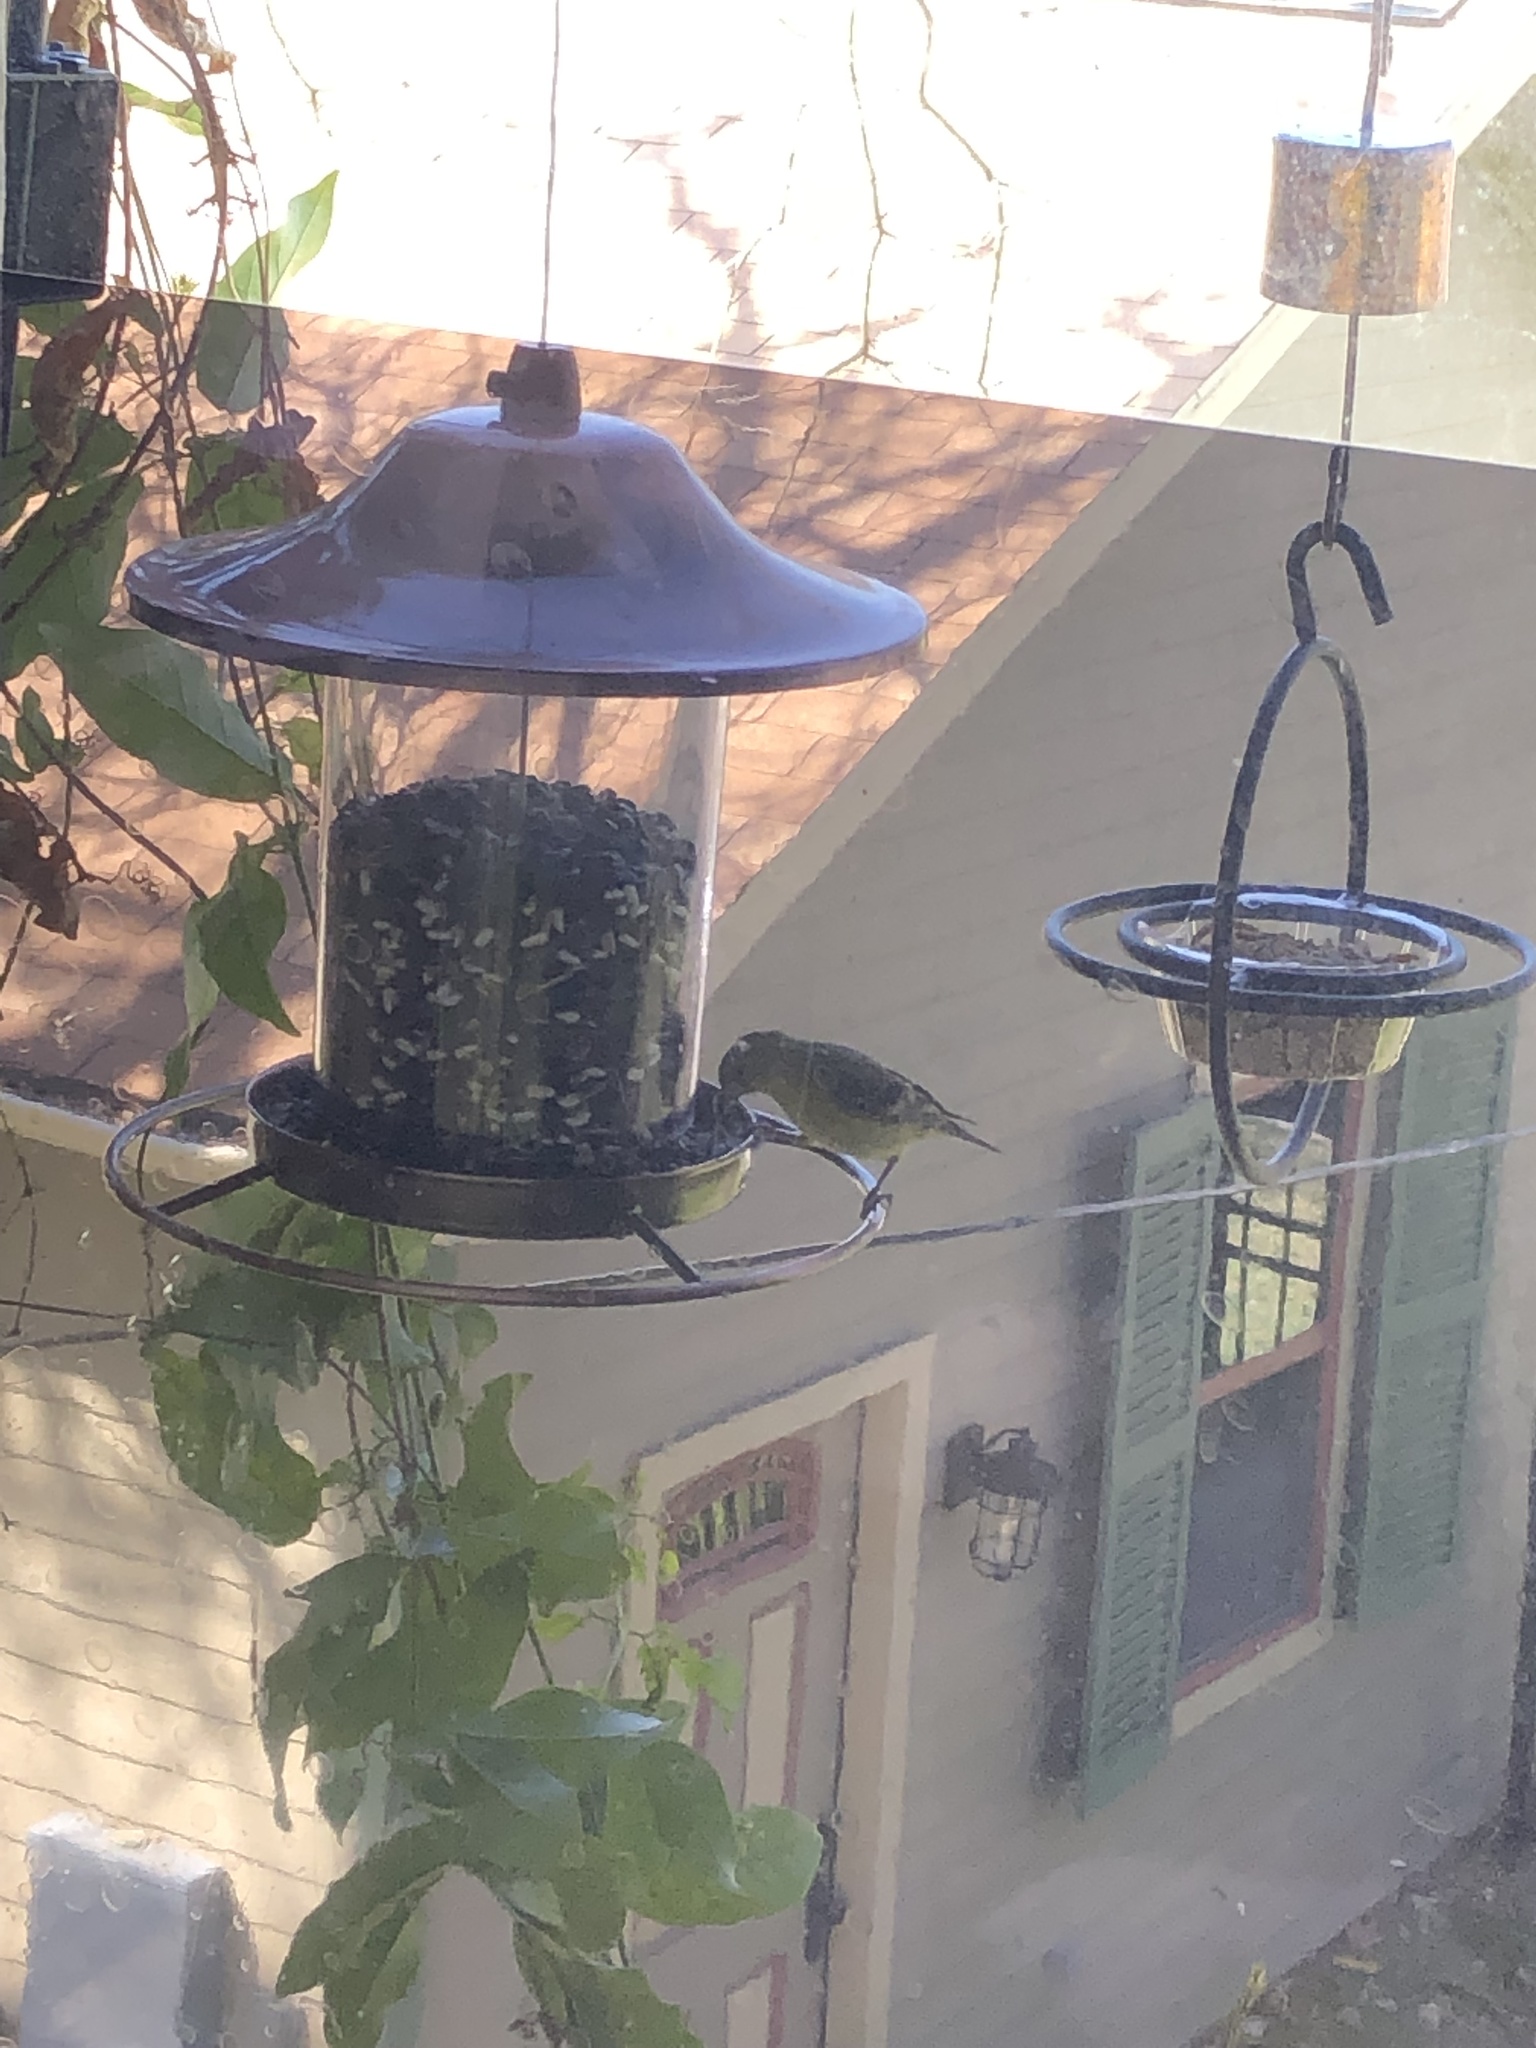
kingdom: Animalia
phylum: Chordata
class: Aves
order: Passeriformes
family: Fringillidae
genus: Spinus
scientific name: Spinus psaltria
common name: Lesser goldfinch
